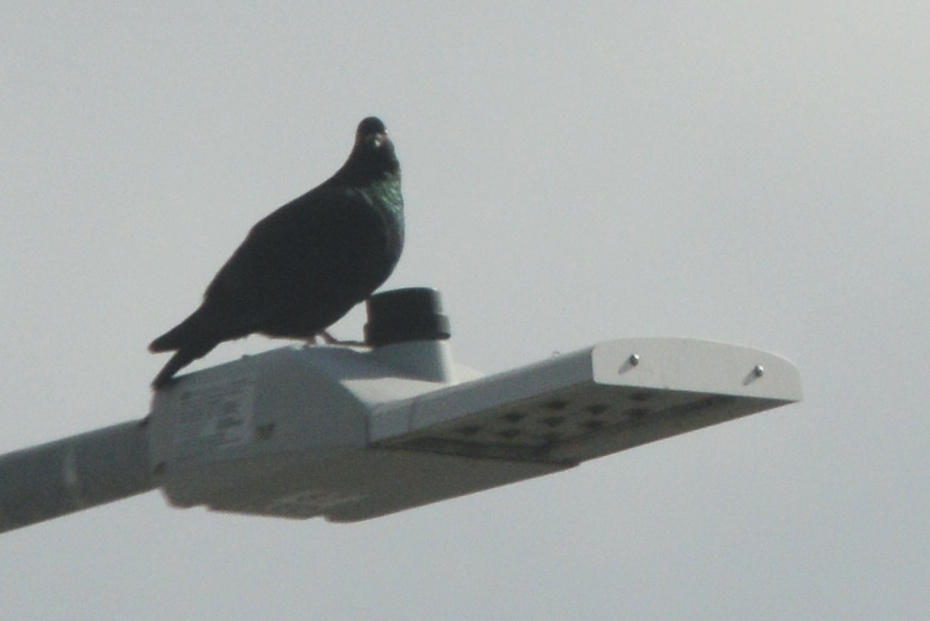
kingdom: Animalia
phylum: Chordata
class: Aves
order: Columbiformes
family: Columbidae
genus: Columba
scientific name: Columba livia
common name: Rock pigeon
